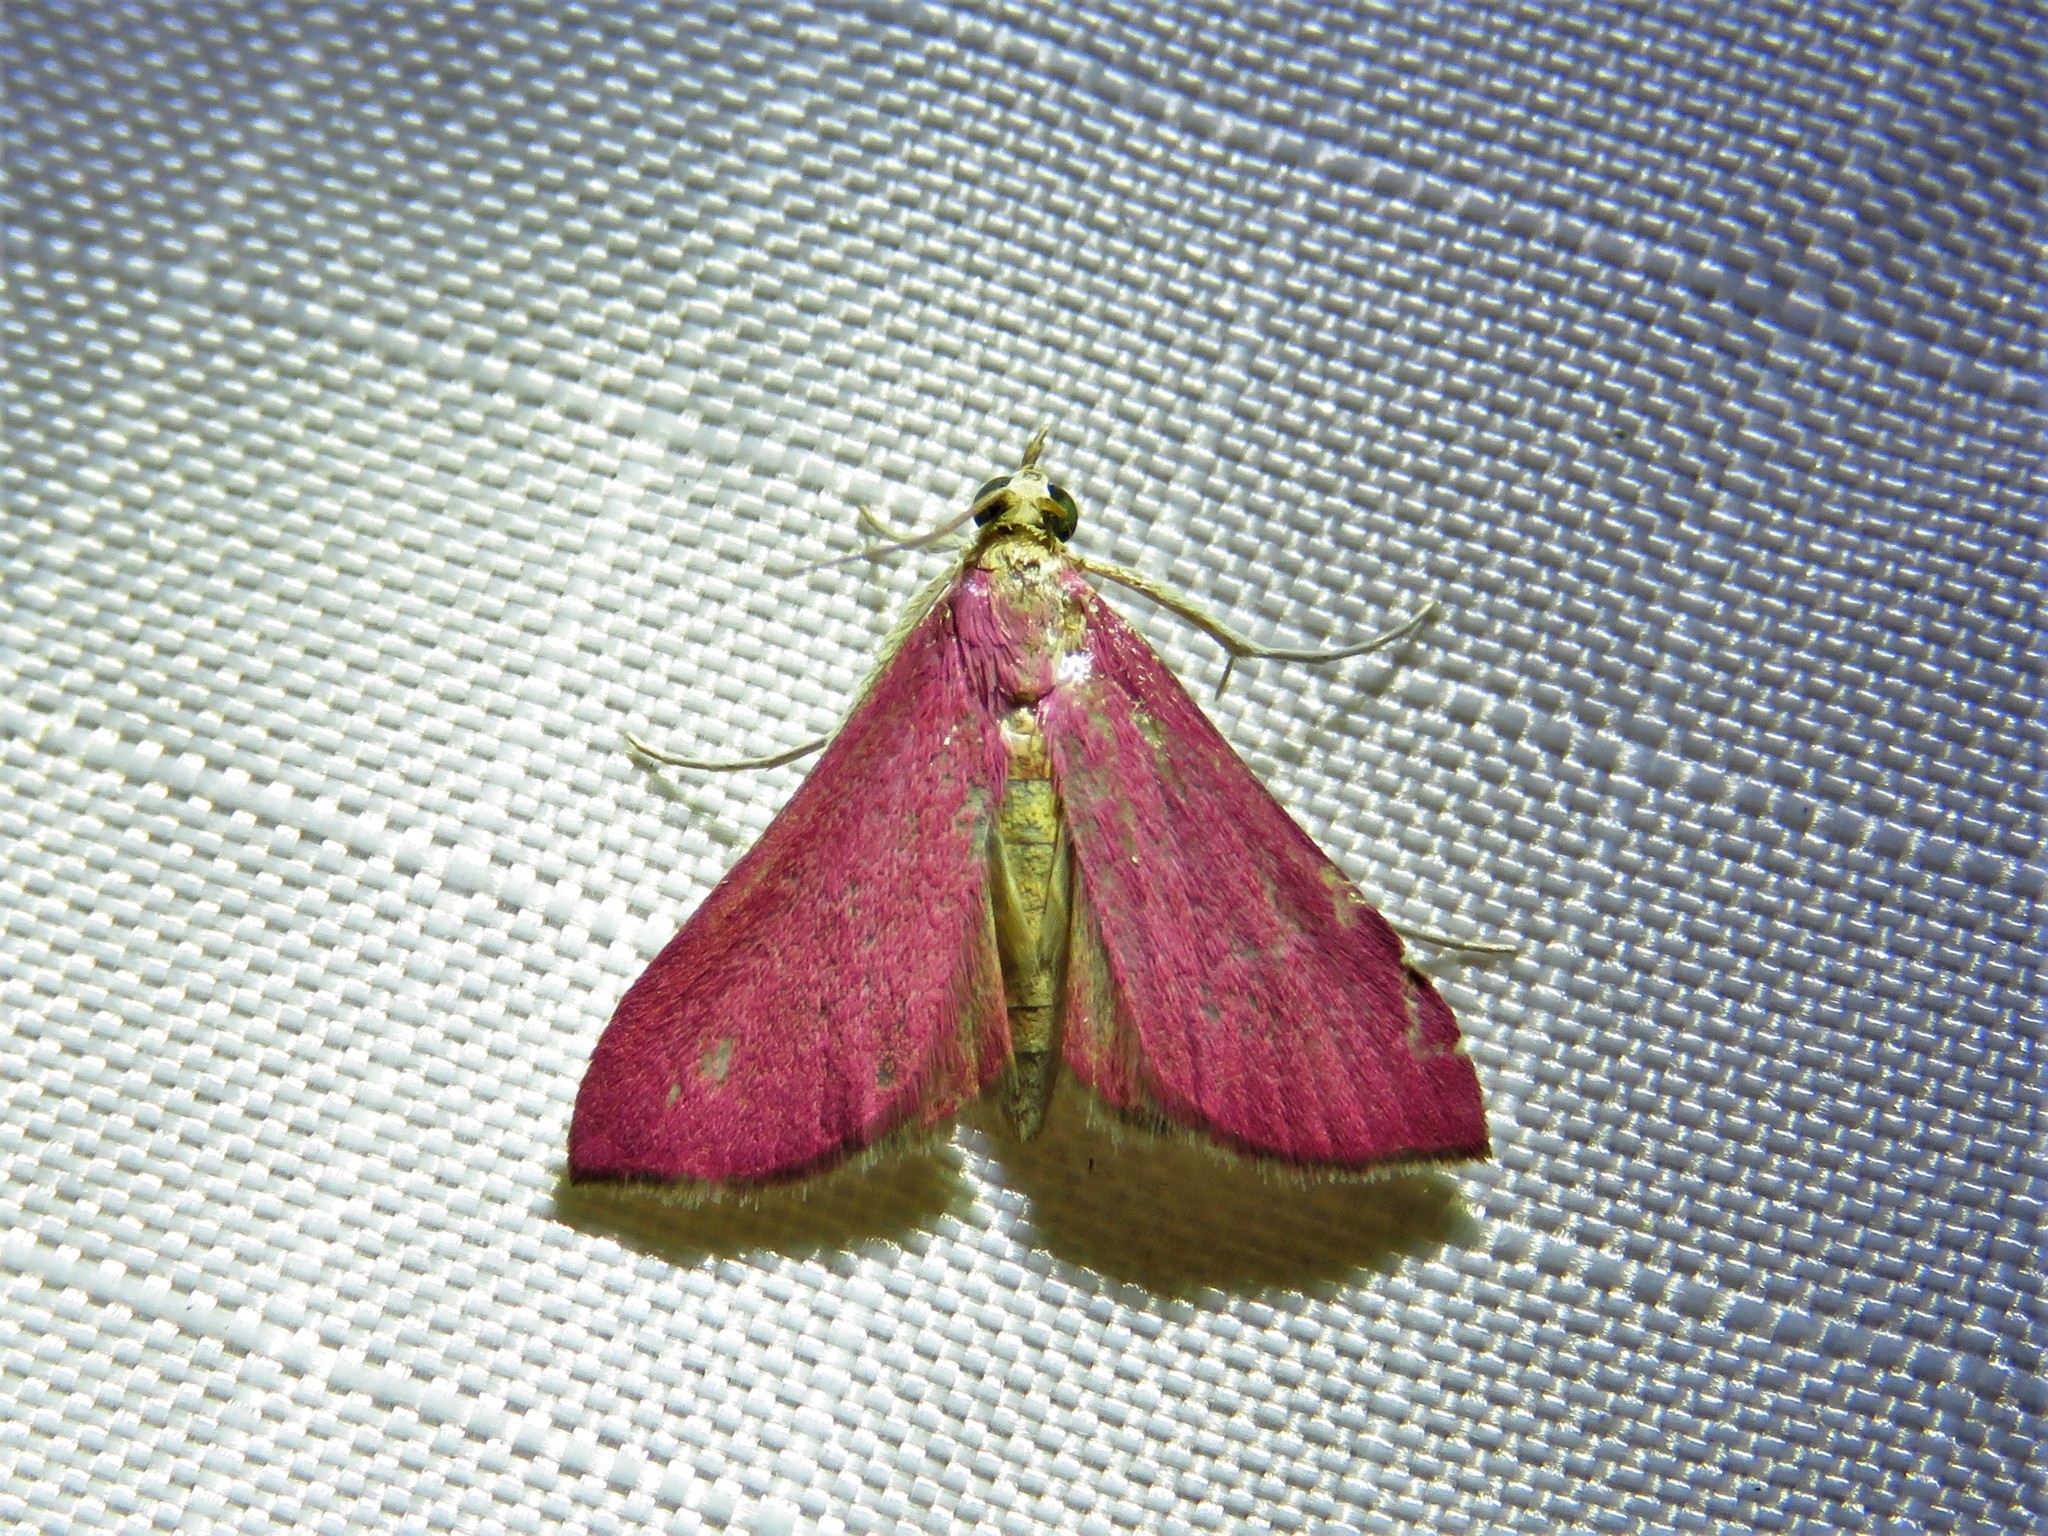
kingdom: Animalia
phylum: Arthropoda
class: Insecta
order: Lepidoptera
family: Crambidae
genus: Pyrausta
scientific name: Pyrausta inornatalis
